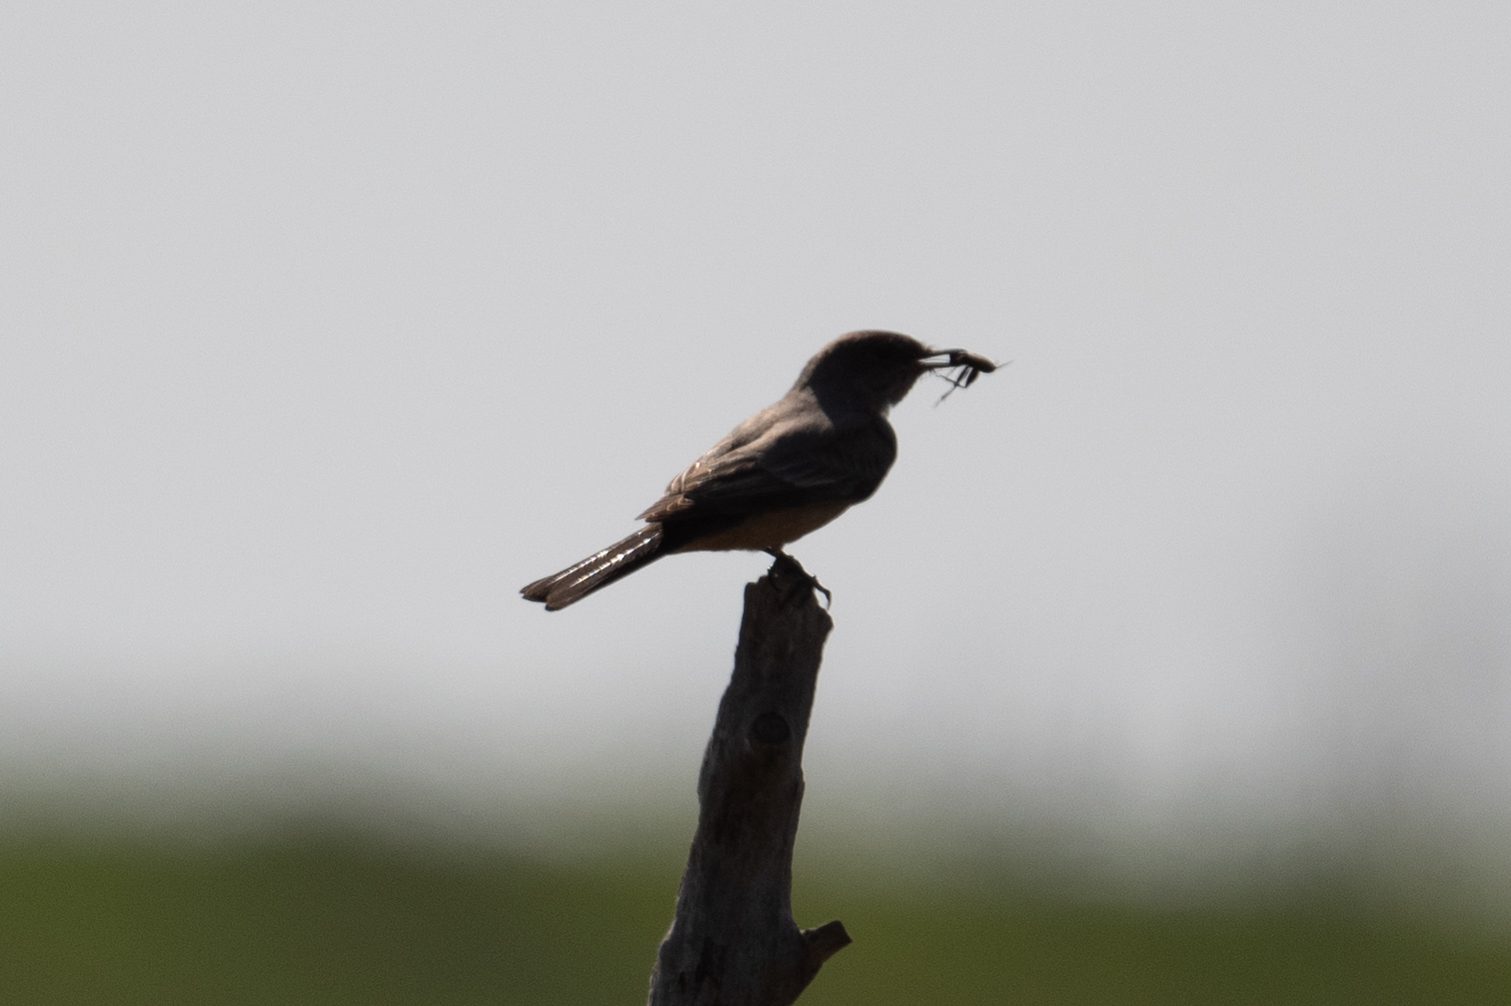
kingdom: Animalia
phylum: Chordata
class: Aves
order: Passeriformes
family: Tyrannidae
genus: Sayornis
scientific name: Sayornis saya
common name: Say's phoebe
